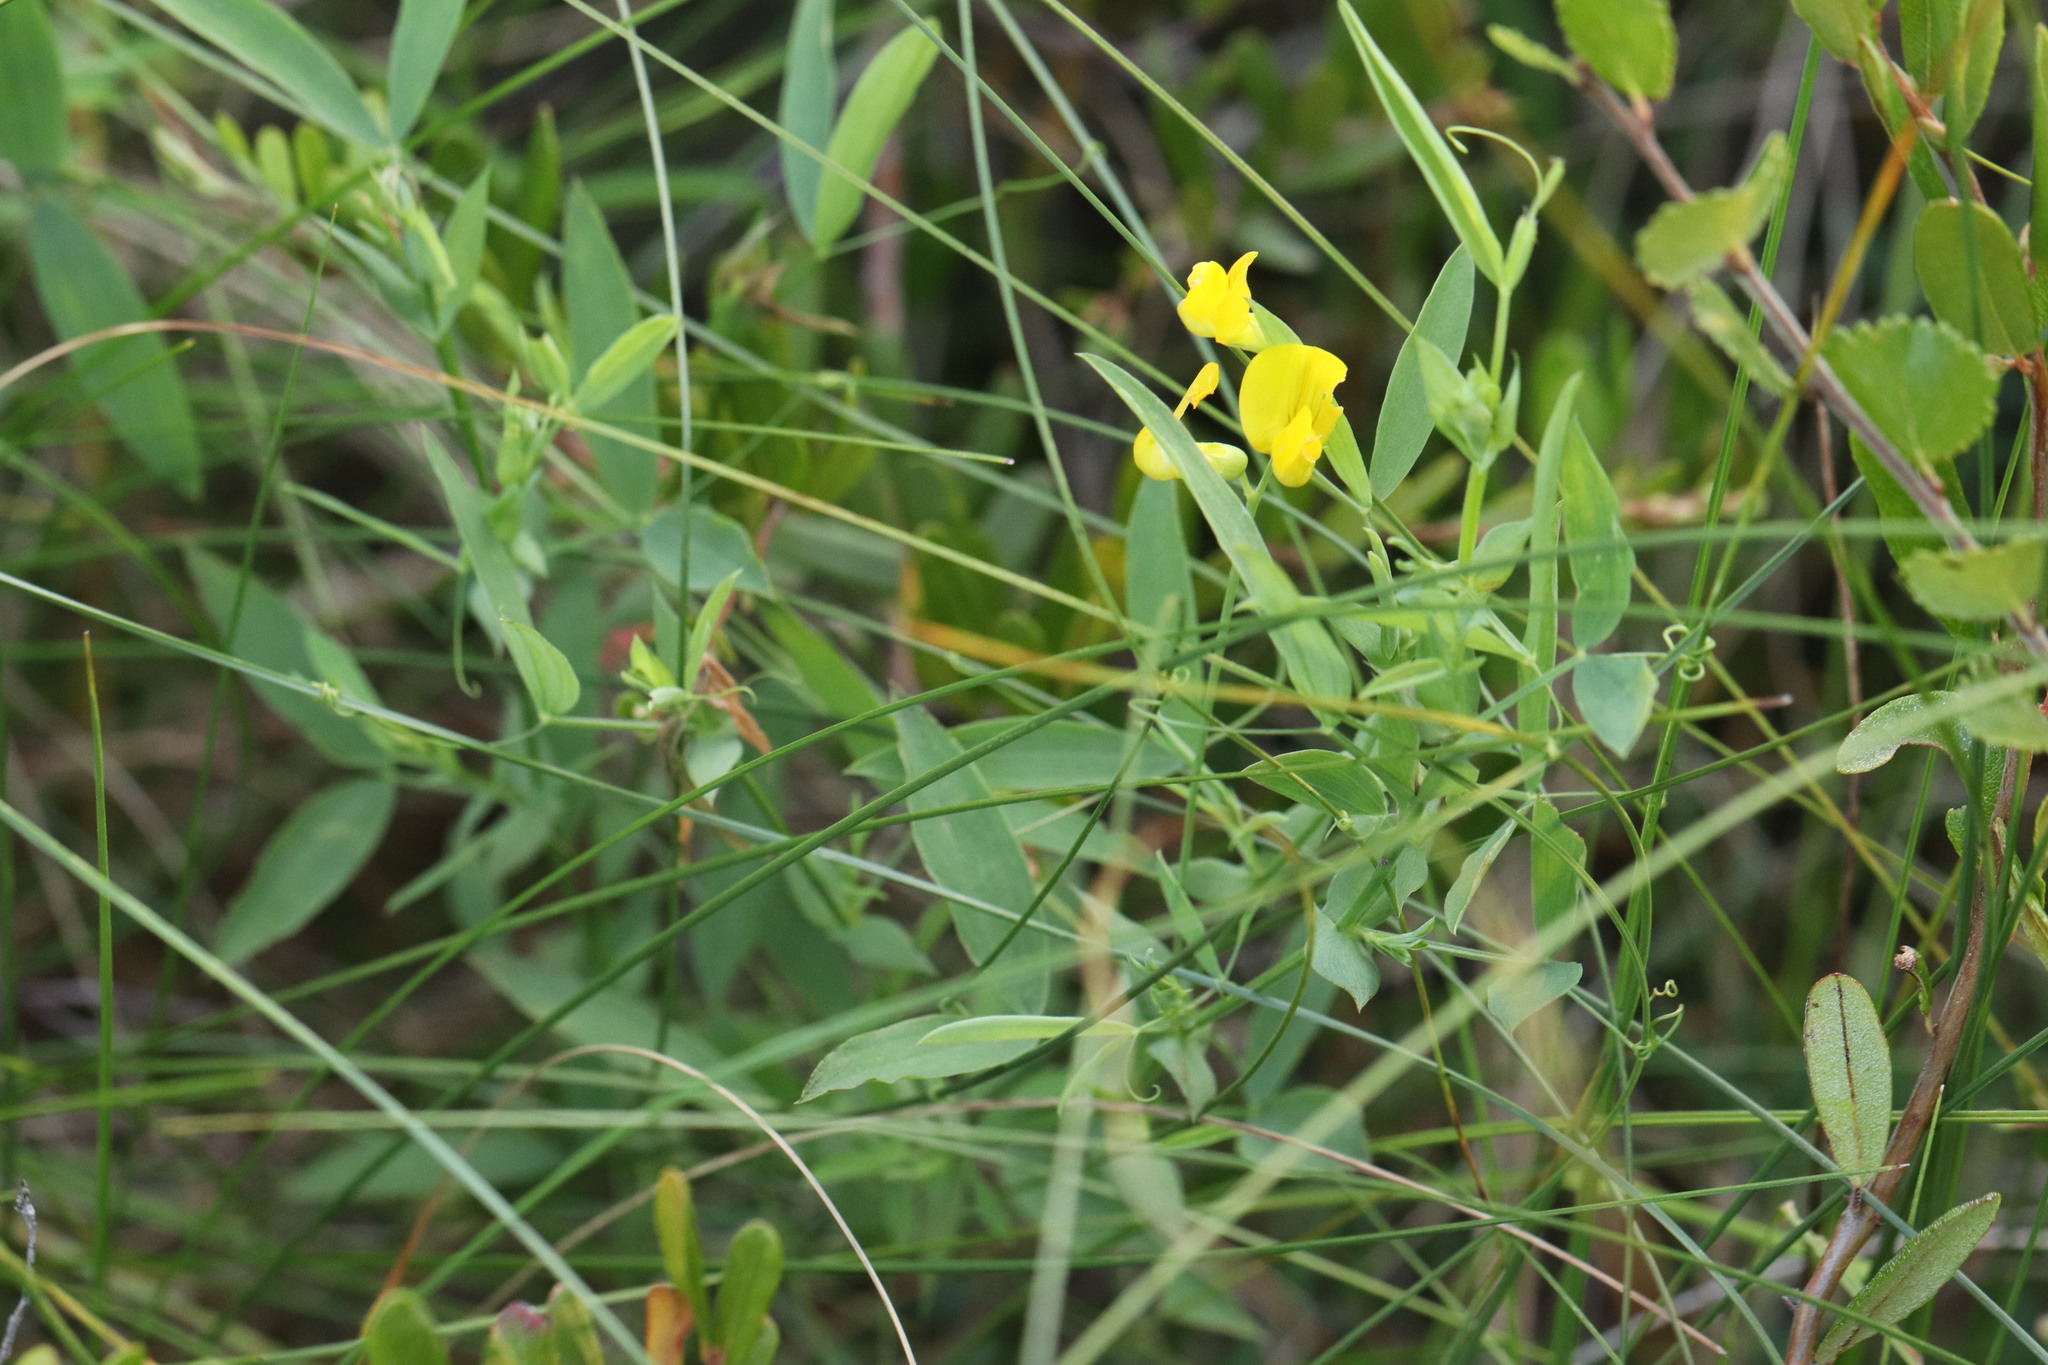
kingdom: Plantae
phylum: Tracheophyta
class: Magnoliopsida
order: Fabales
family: Fabaceae
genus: Lathyrus
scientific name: Lathyrus pratensis
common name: Meadow vetchling
